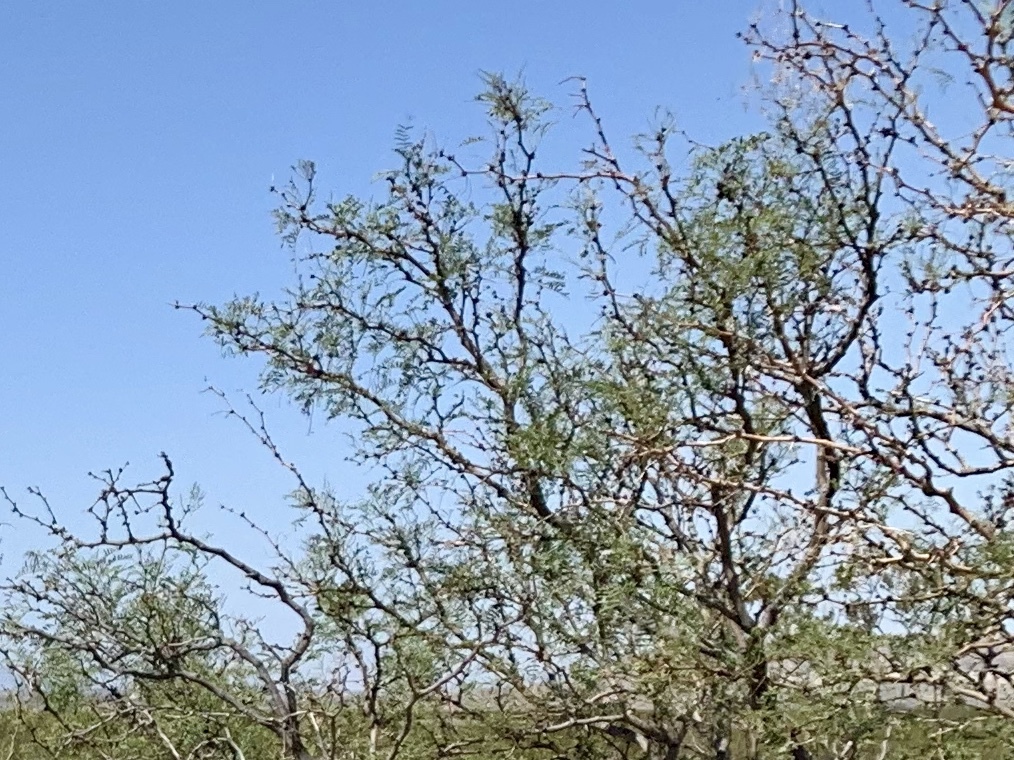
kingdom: Plantae
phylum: Tracheophyta
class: Magnoliopsida
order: Fabales
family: Fabaceae
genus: Prosopis
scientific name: Prosopis glandulosa
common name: Honey mesquite
